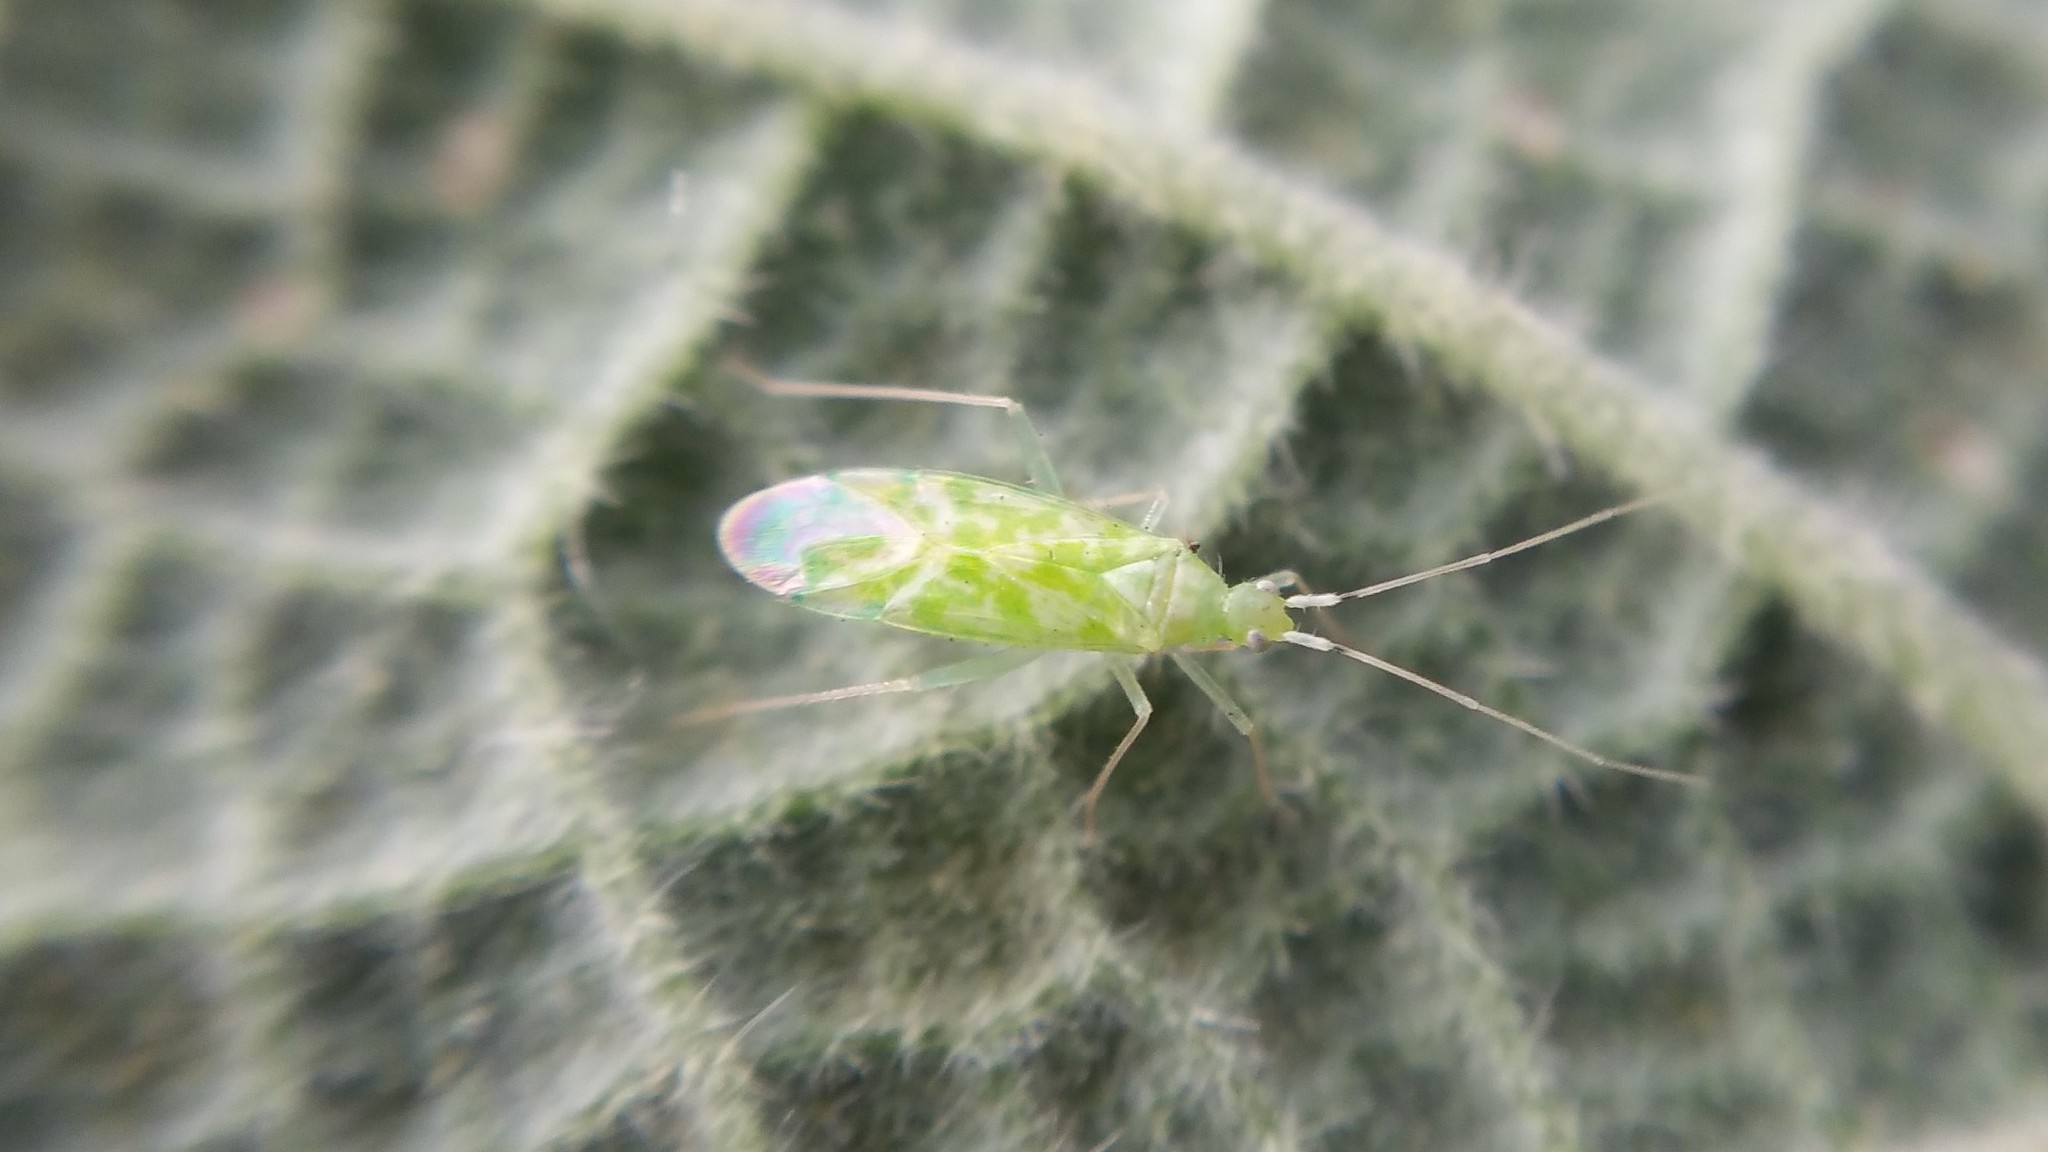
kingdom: Animalia
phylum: Arthropoda
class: Insecta
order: Hemiptera
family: Miridae
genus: Malacocoris
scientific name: Malacocoris chlorizans
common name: Plant bug
